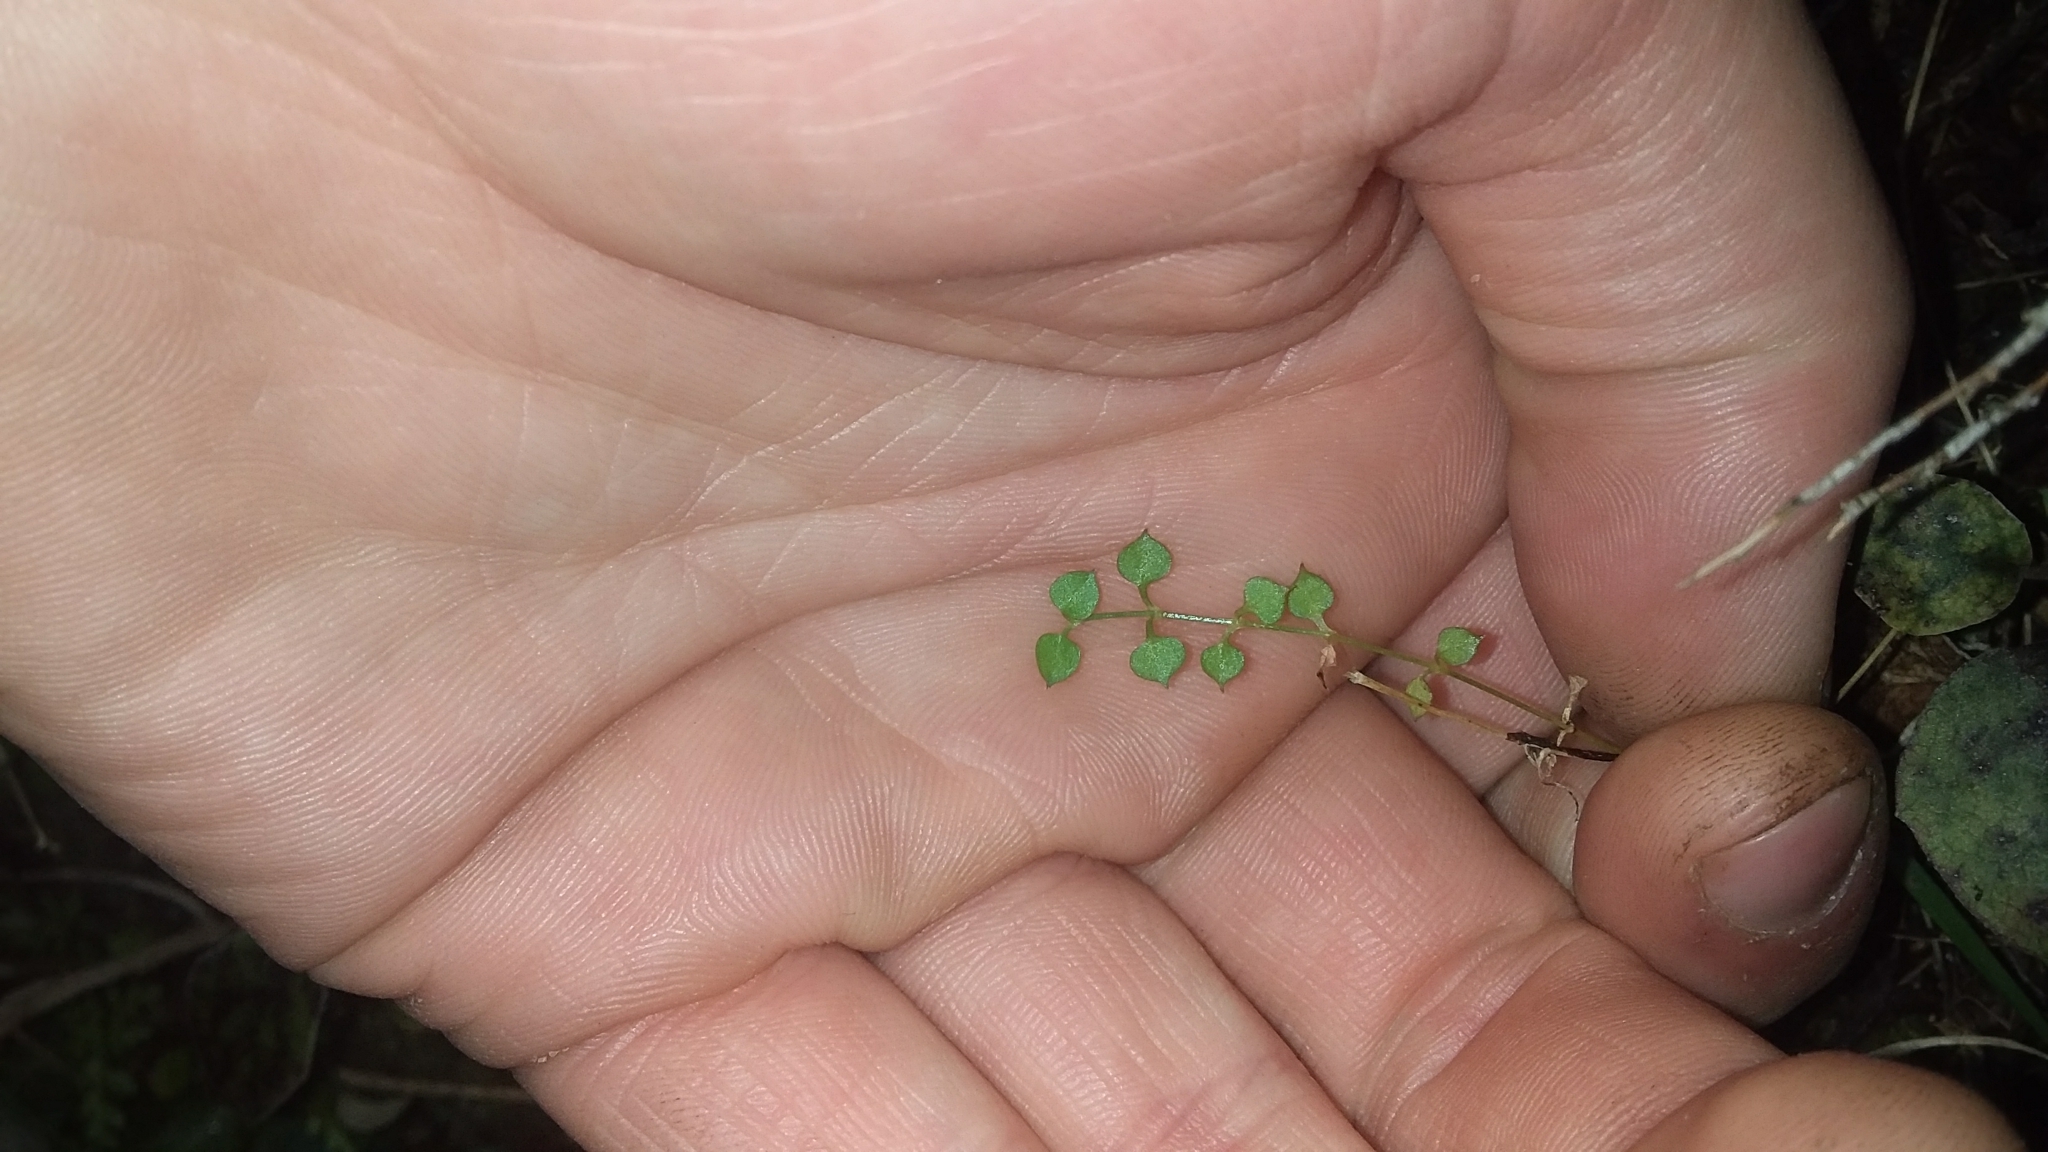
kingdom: Plantae
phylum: Tracheophyta
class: Magnoliopsida
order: Caryophyllales
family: Caryophyllaceae
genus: Stellaria
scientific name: Stellaria parviflora
